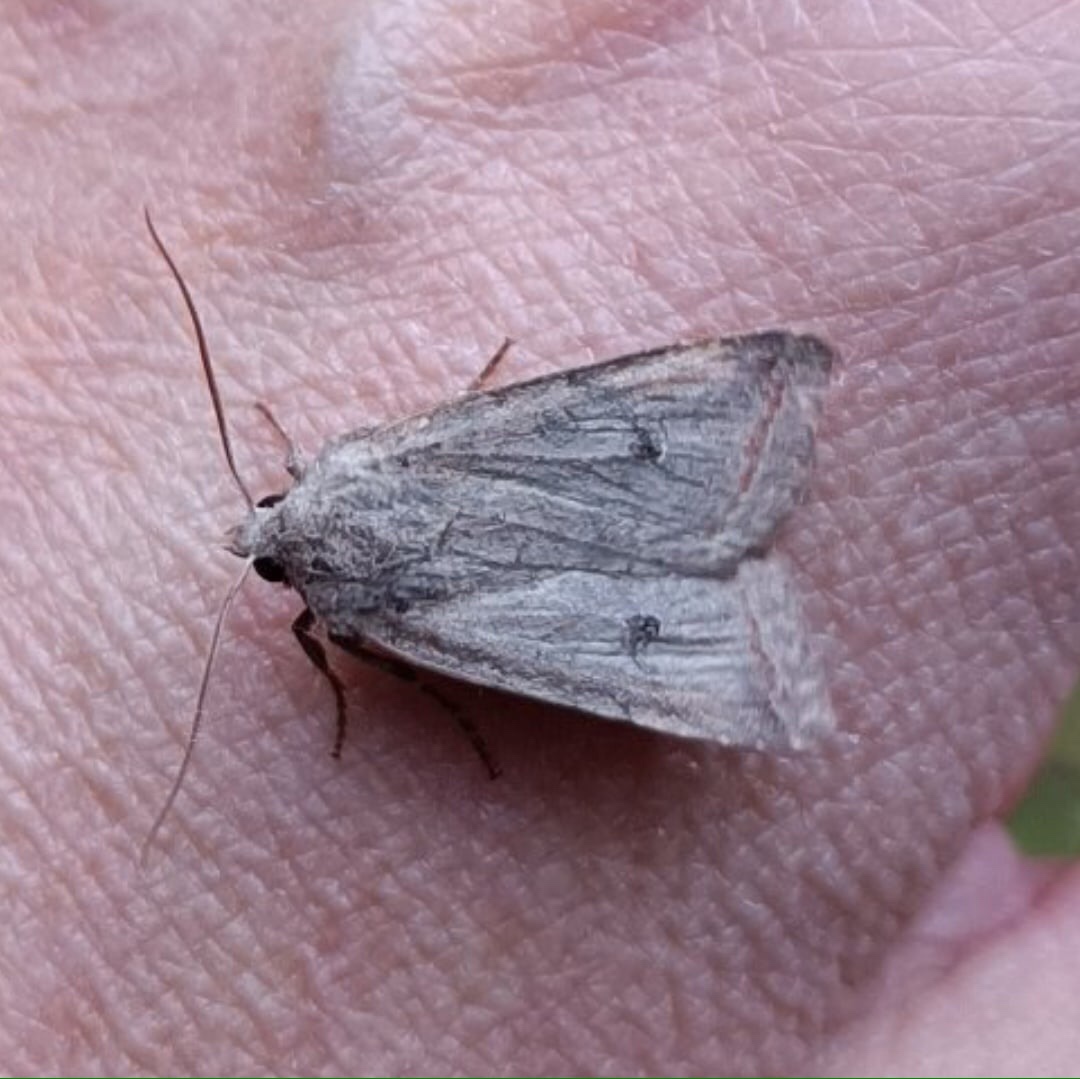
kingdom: Animalia
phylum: Arthropoda
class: Insecta
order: Lepidoptera
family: Noctuidae
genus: Agrochola
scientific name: Agrochola lota
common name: Red-line quaker
